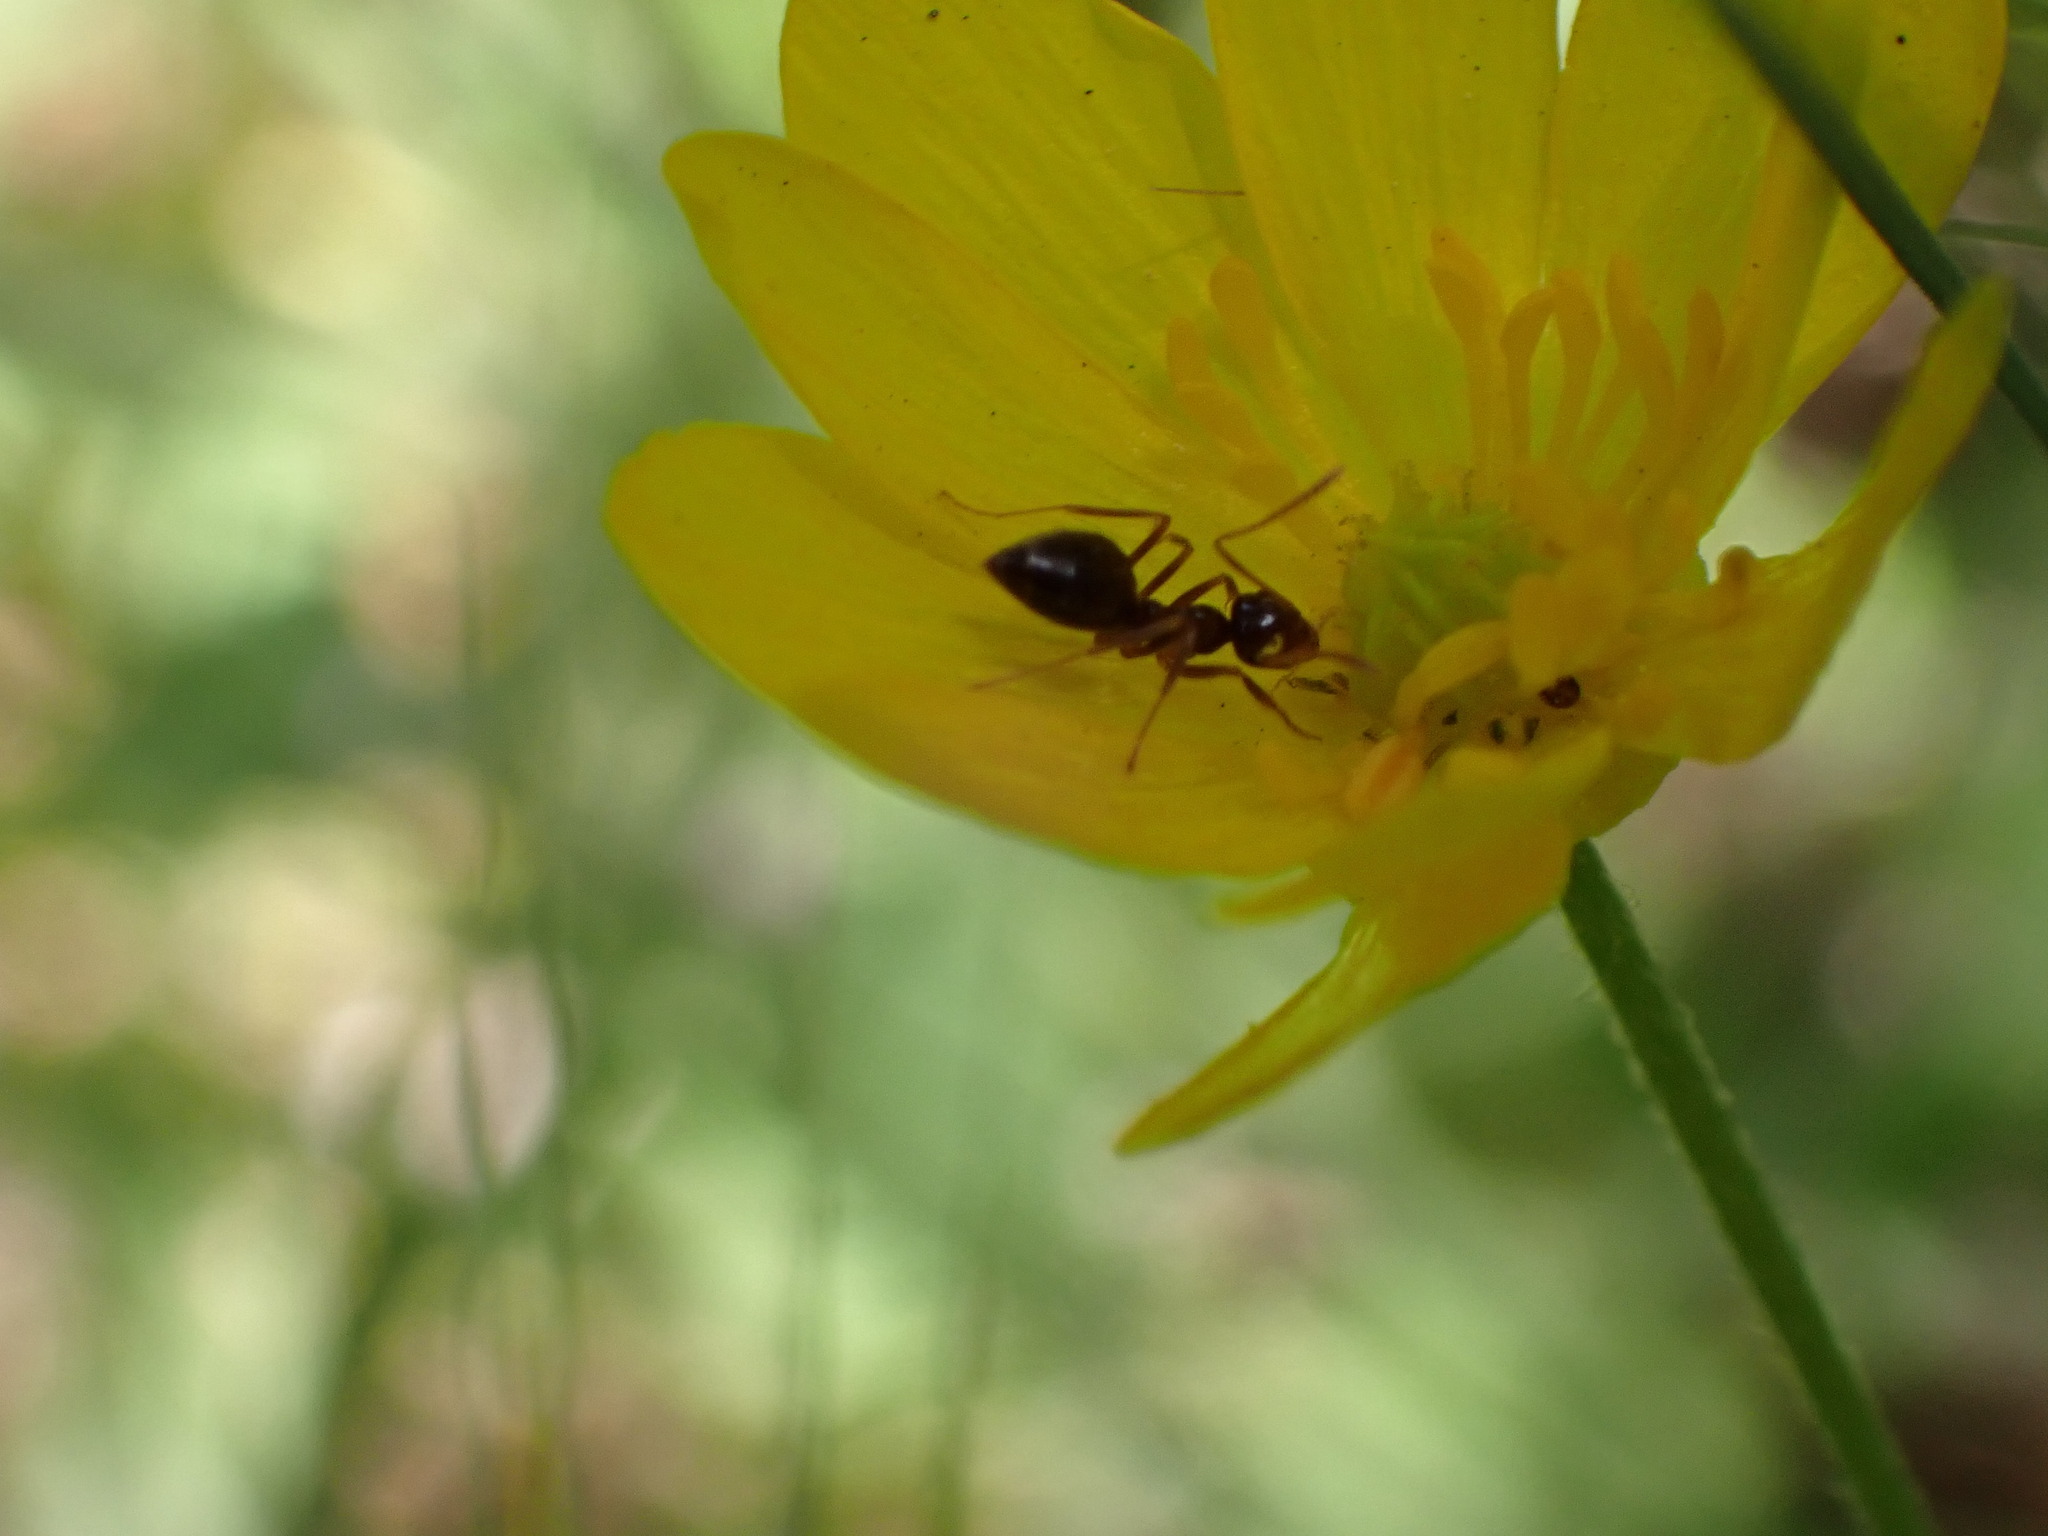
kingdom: Animalia
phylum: Arthropoda
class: Insecta
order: Hymenoptera
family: Formicidae
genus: Prenolepis
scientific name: Prenolepis imparis
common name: Small honey ant
